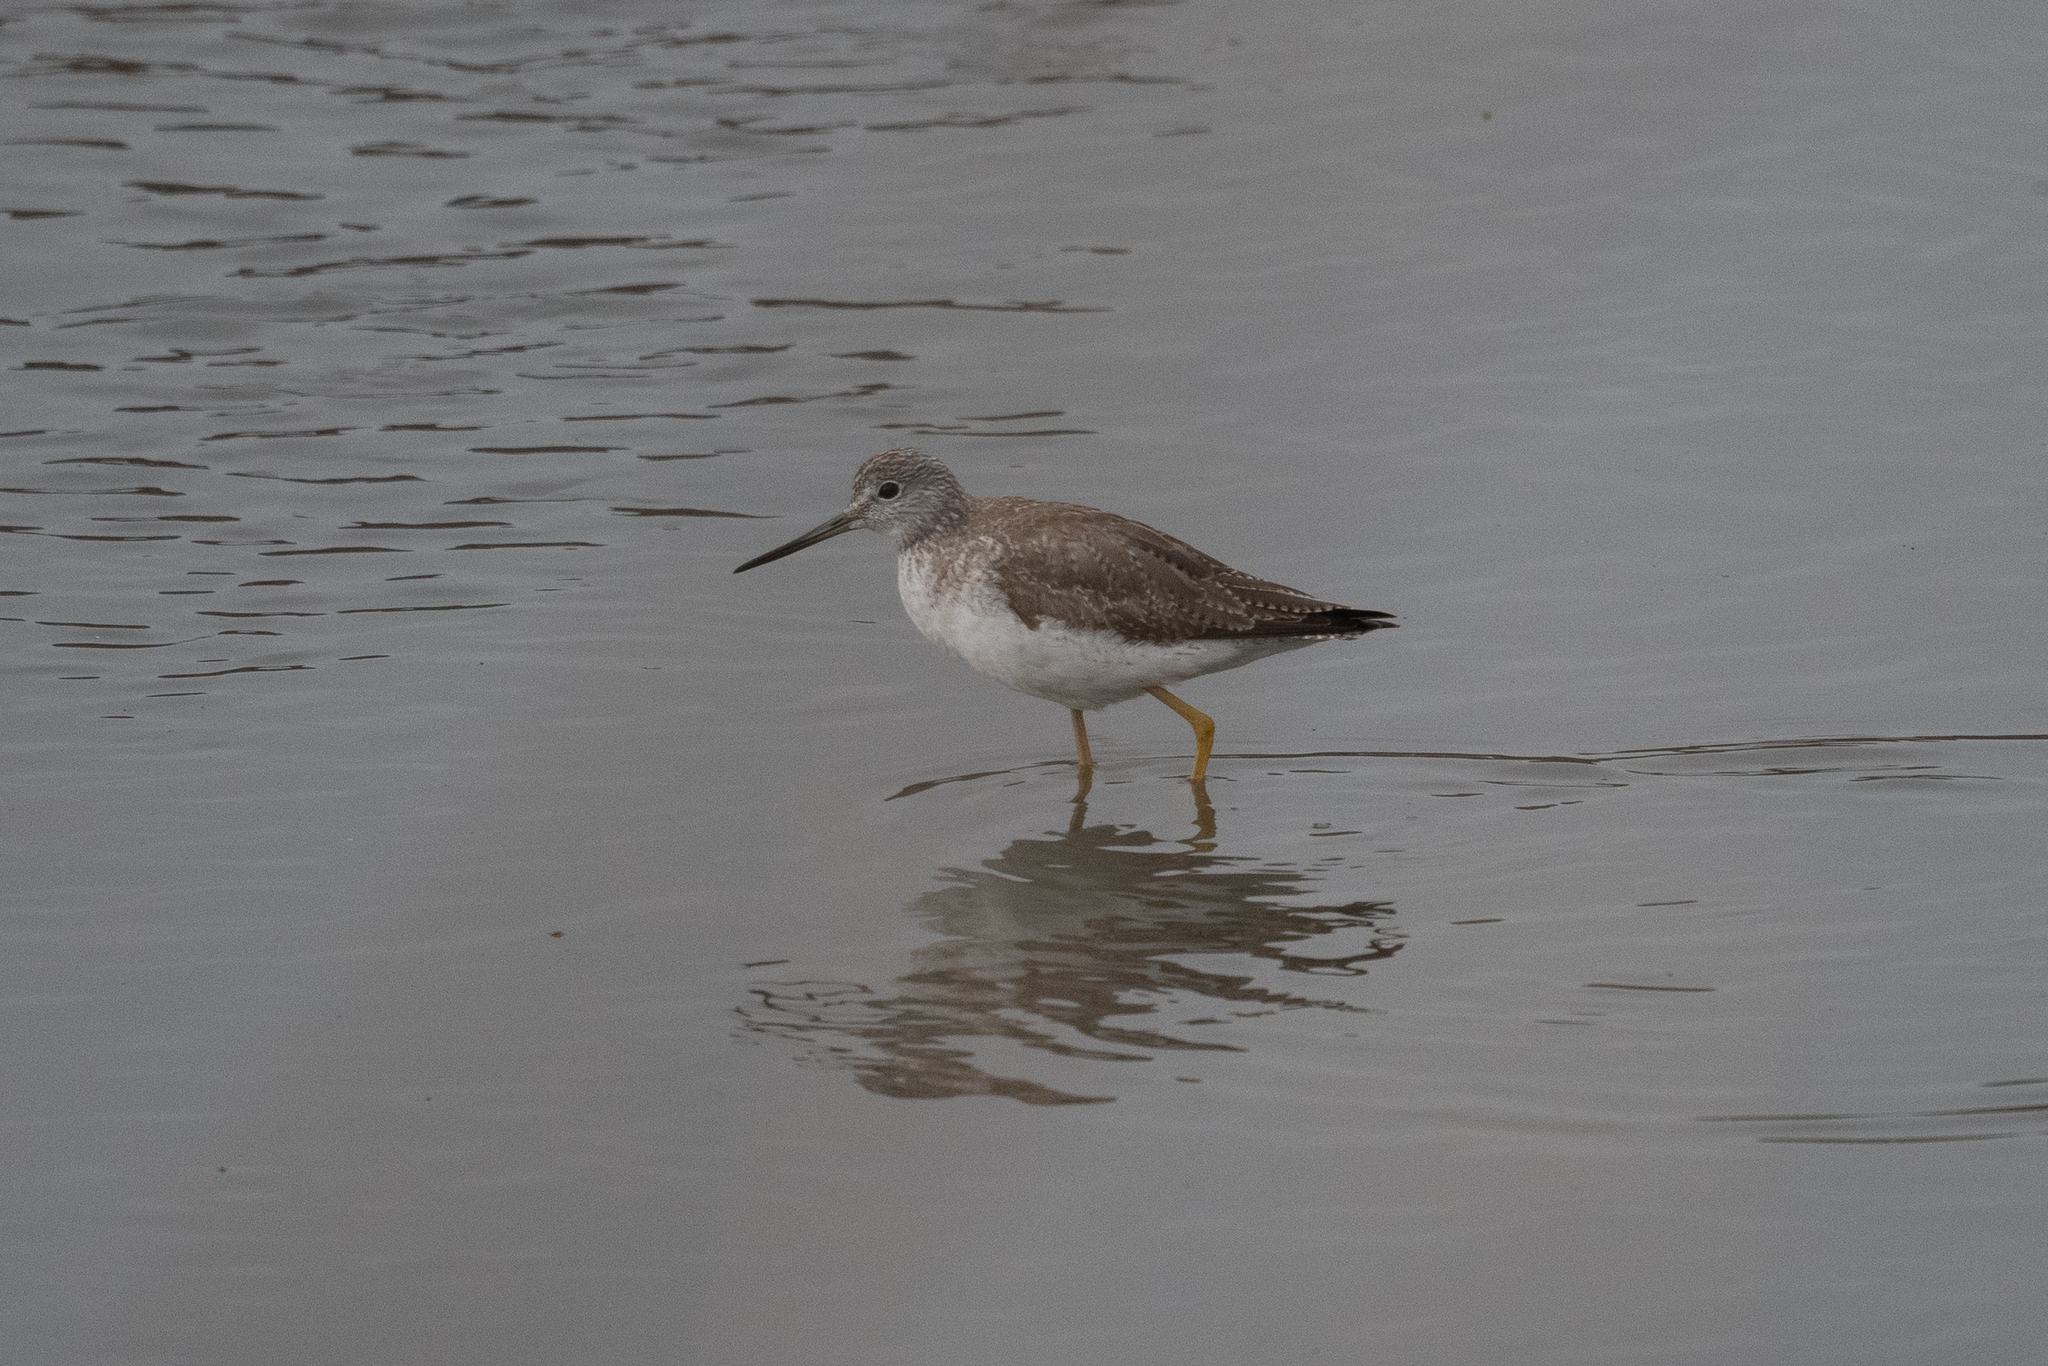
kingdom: Animalia
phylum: Chordata
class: Aves
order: Charadriiformes
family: Scolopacidae
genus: Tringa
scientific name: Tringa melanoleuca
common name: Greater yellowlegs
